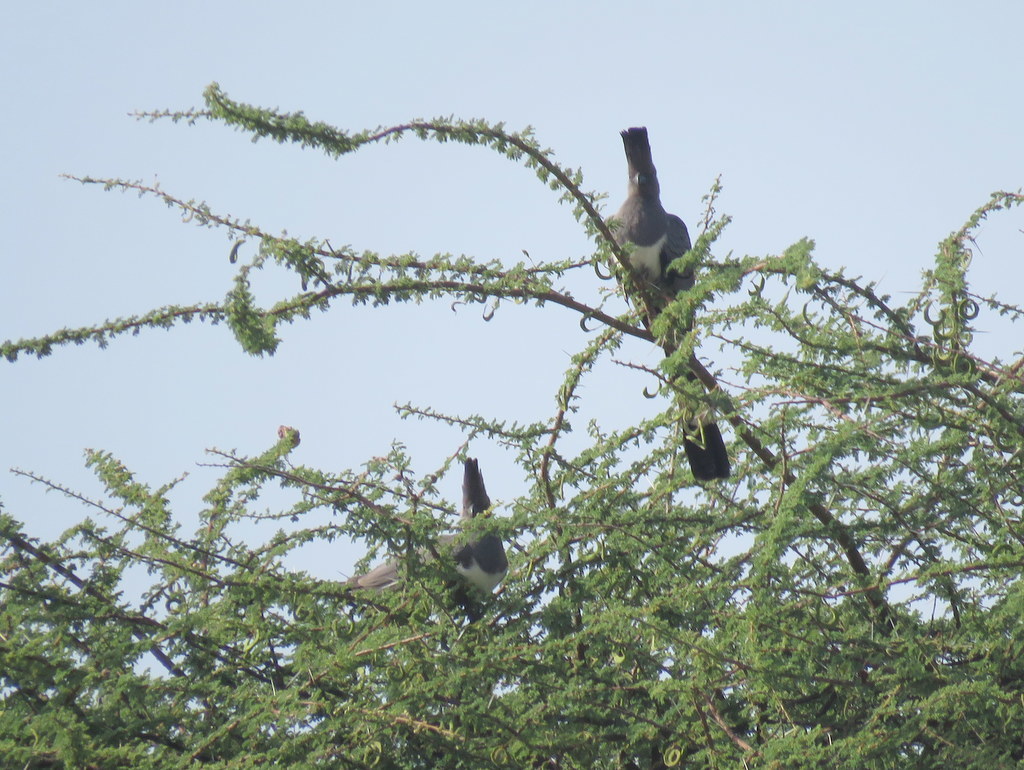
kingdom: Animalia
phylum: Chordata
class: Aves
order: Musophagiformes
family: Musophagidae
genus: Corythaixoides
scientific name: Corythaixoides leucogaster
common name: White-bellied go-away-bird
